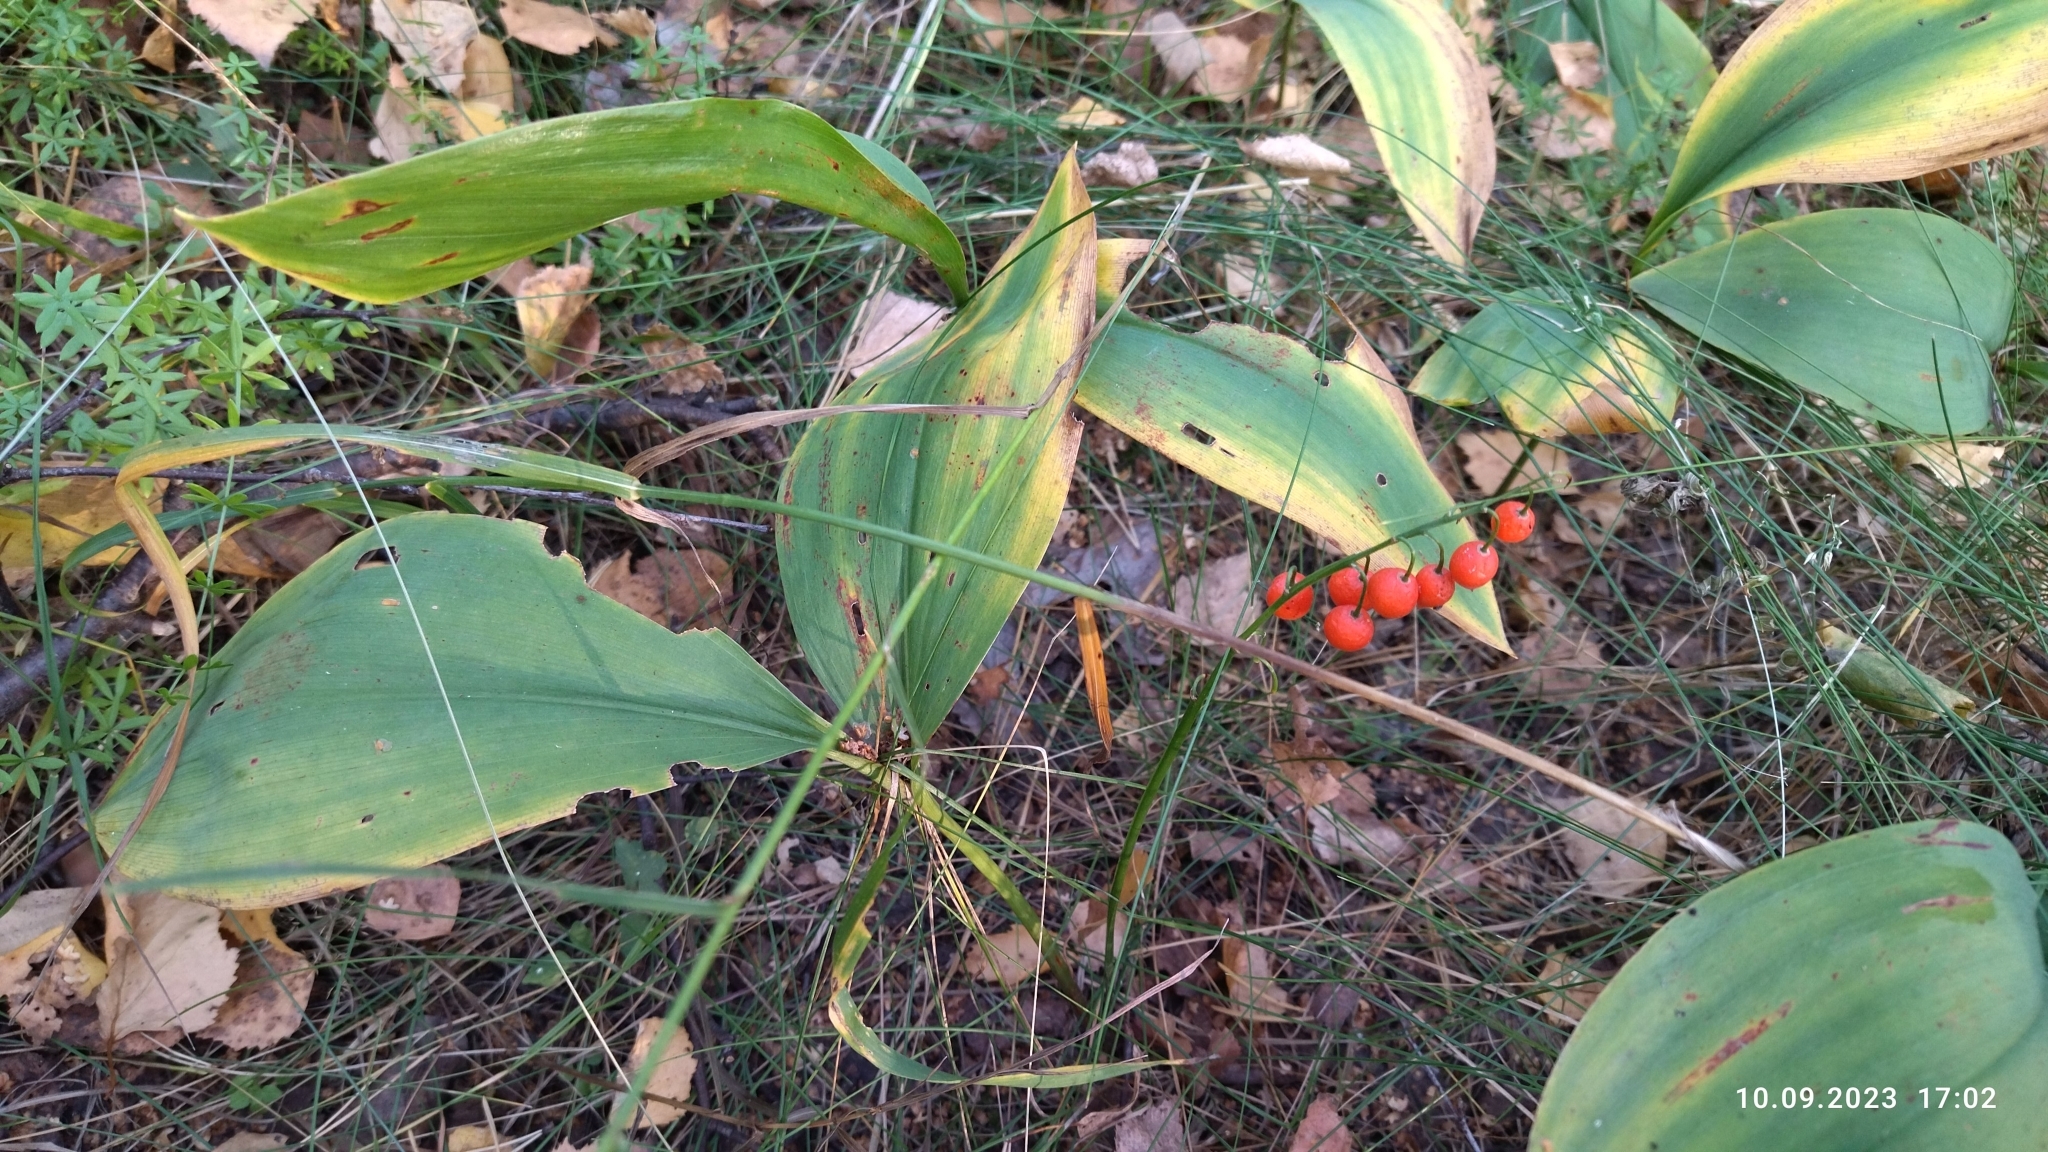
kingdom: Plantae
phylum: Tracheophyta
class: Liliopsida
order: Asparagales
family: Asparagaceae
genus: Convallaria
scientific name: Convallaria majalis
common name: Lily-of-the-valley
